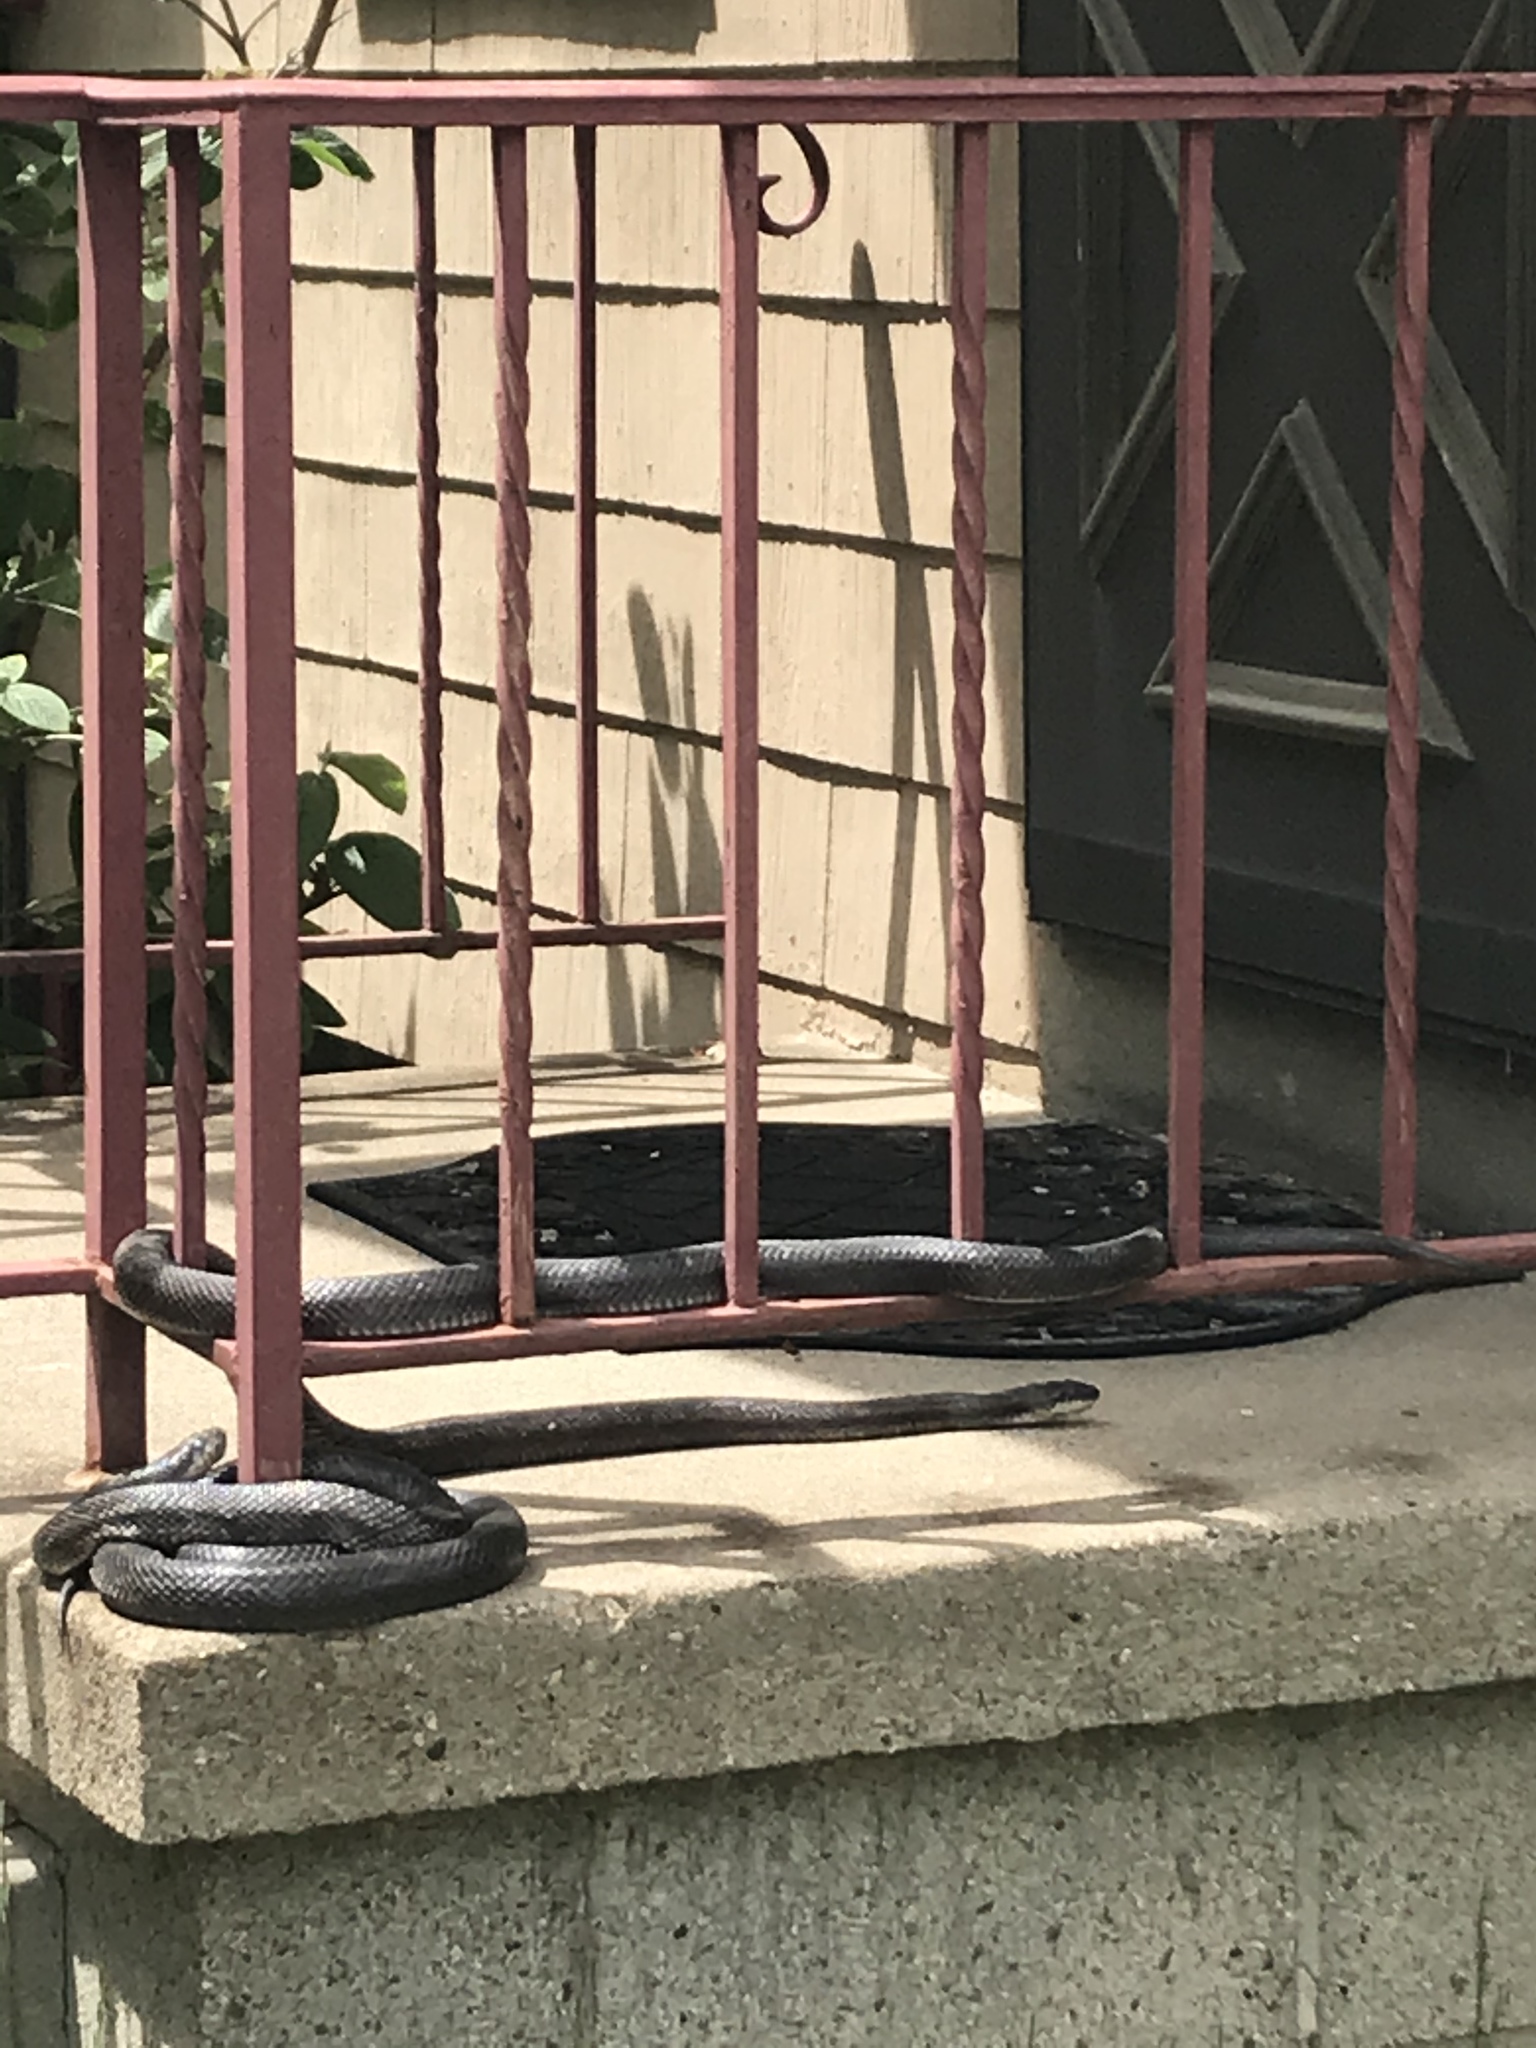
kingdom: Animalia
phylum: Chordata
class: Squamata
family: Colubridae
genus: Pantherophis
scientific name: Pantherophis spiloides
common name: Gray rat snake
